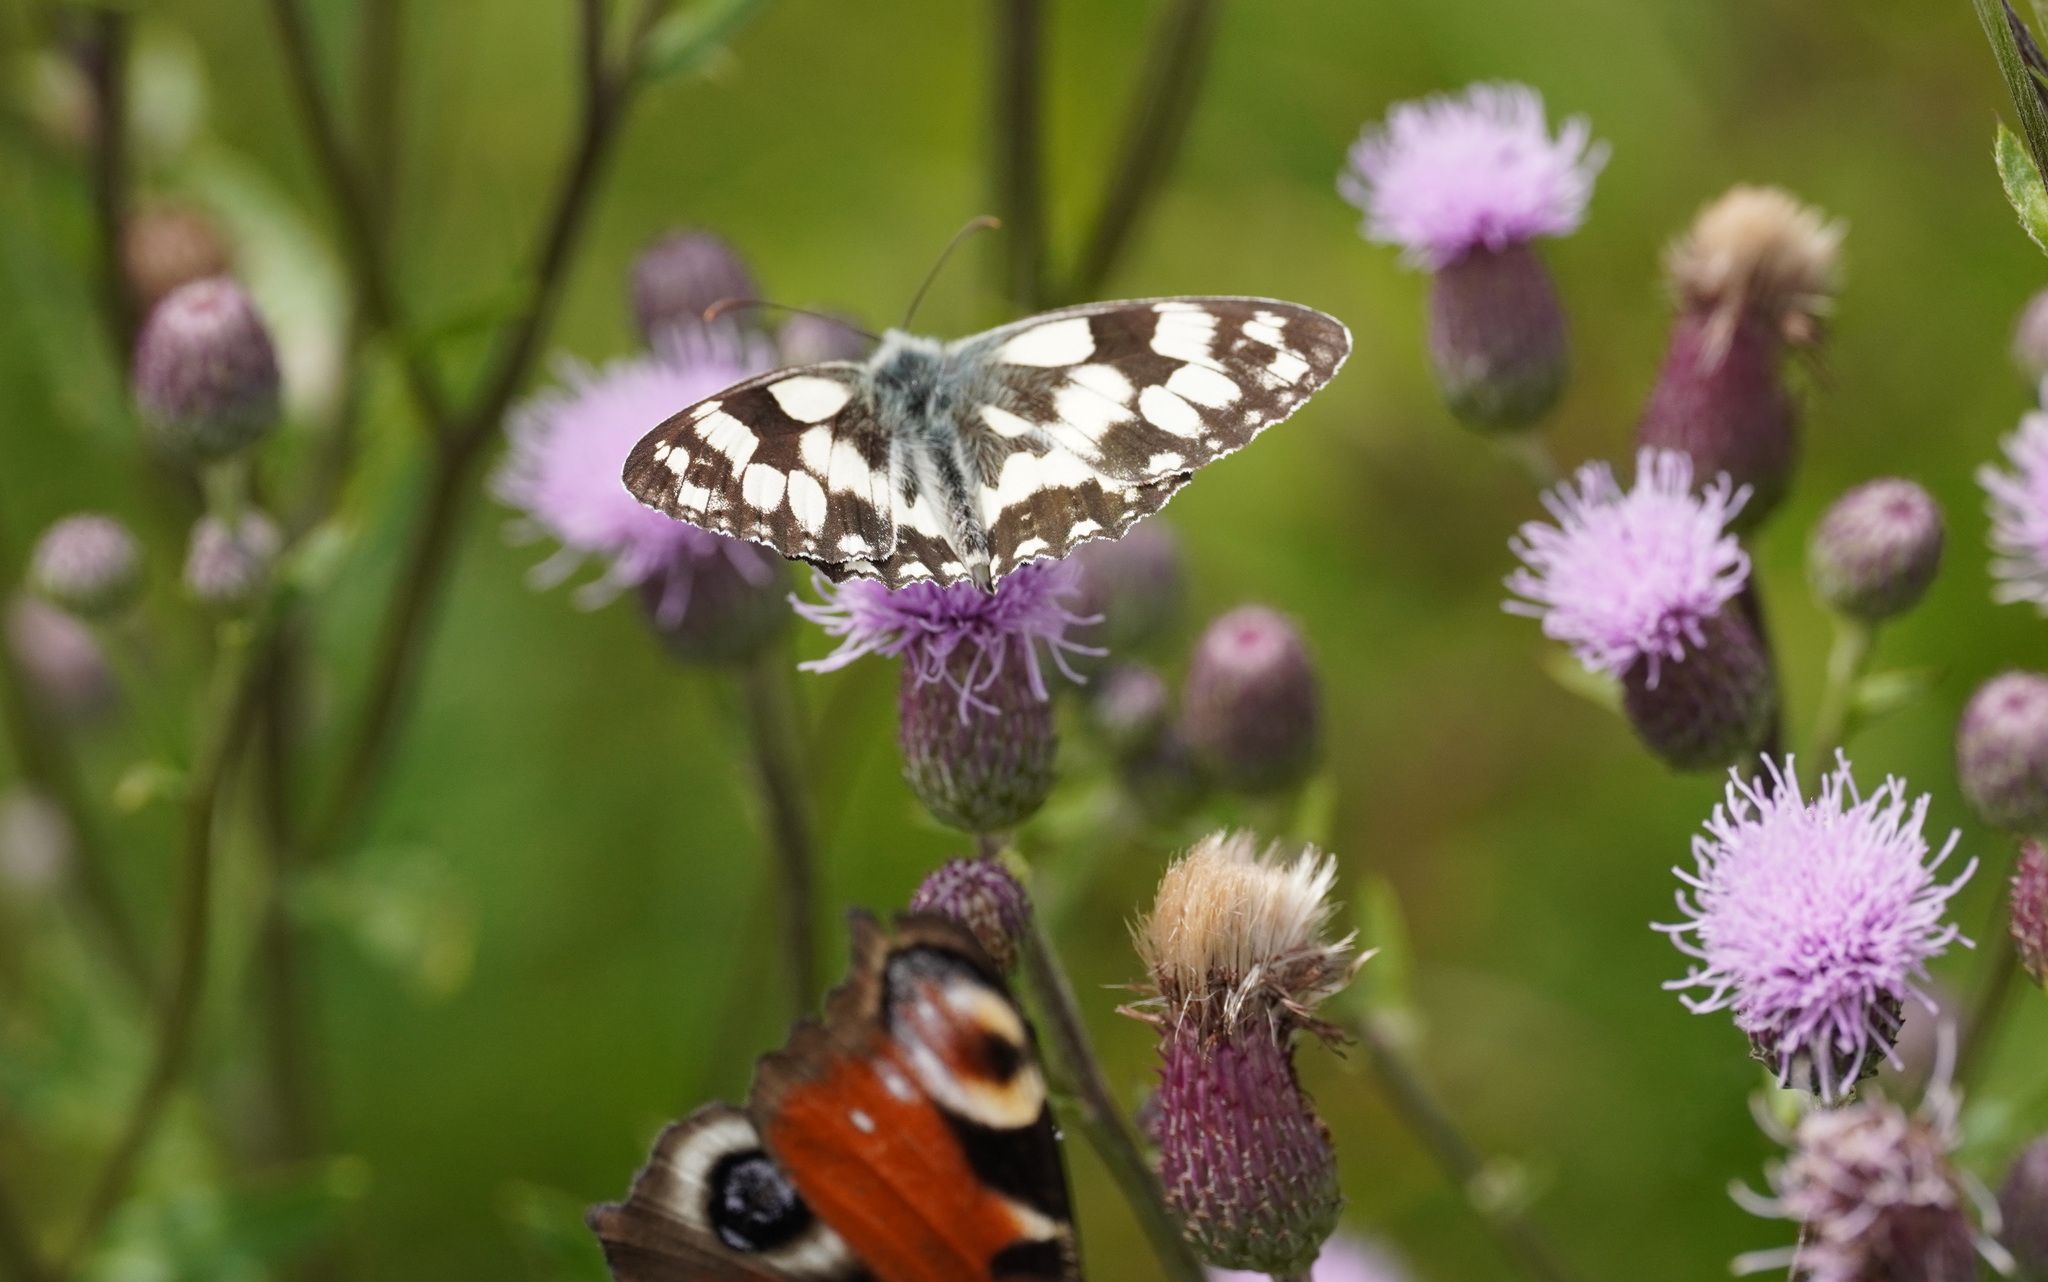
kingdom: Animalia
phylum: Arthropoda
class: Insecta
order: Lepidoptera
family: Nymphalidae
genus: Melanargia
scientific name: Melanargia galathea
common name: Marbled white
